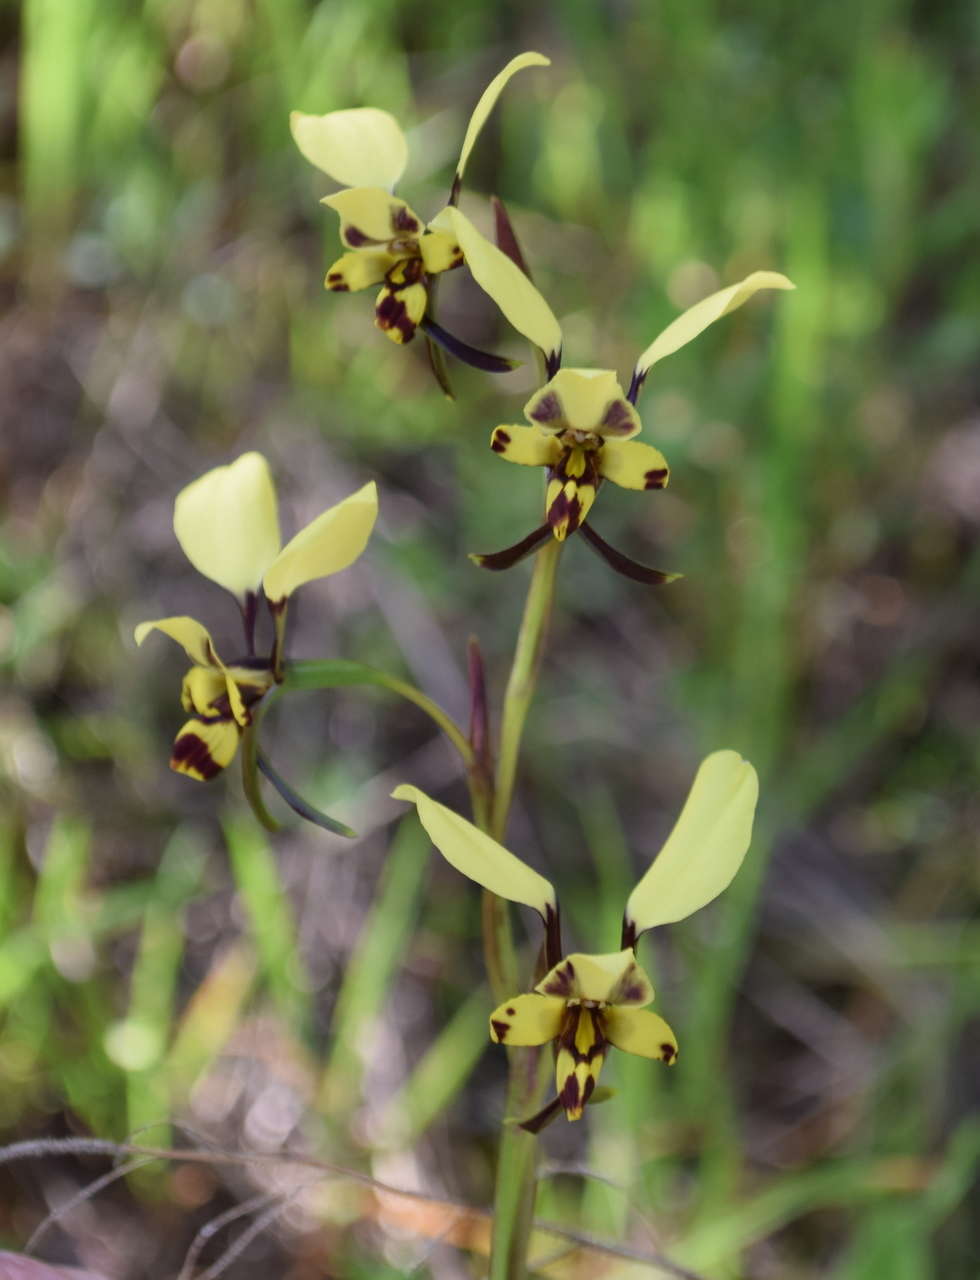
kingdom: Plantae
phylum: Tracheophyta
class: Liliopsida
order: Asparagales
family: Orchidaceae
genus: Diuris
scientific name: Diuris pardina
